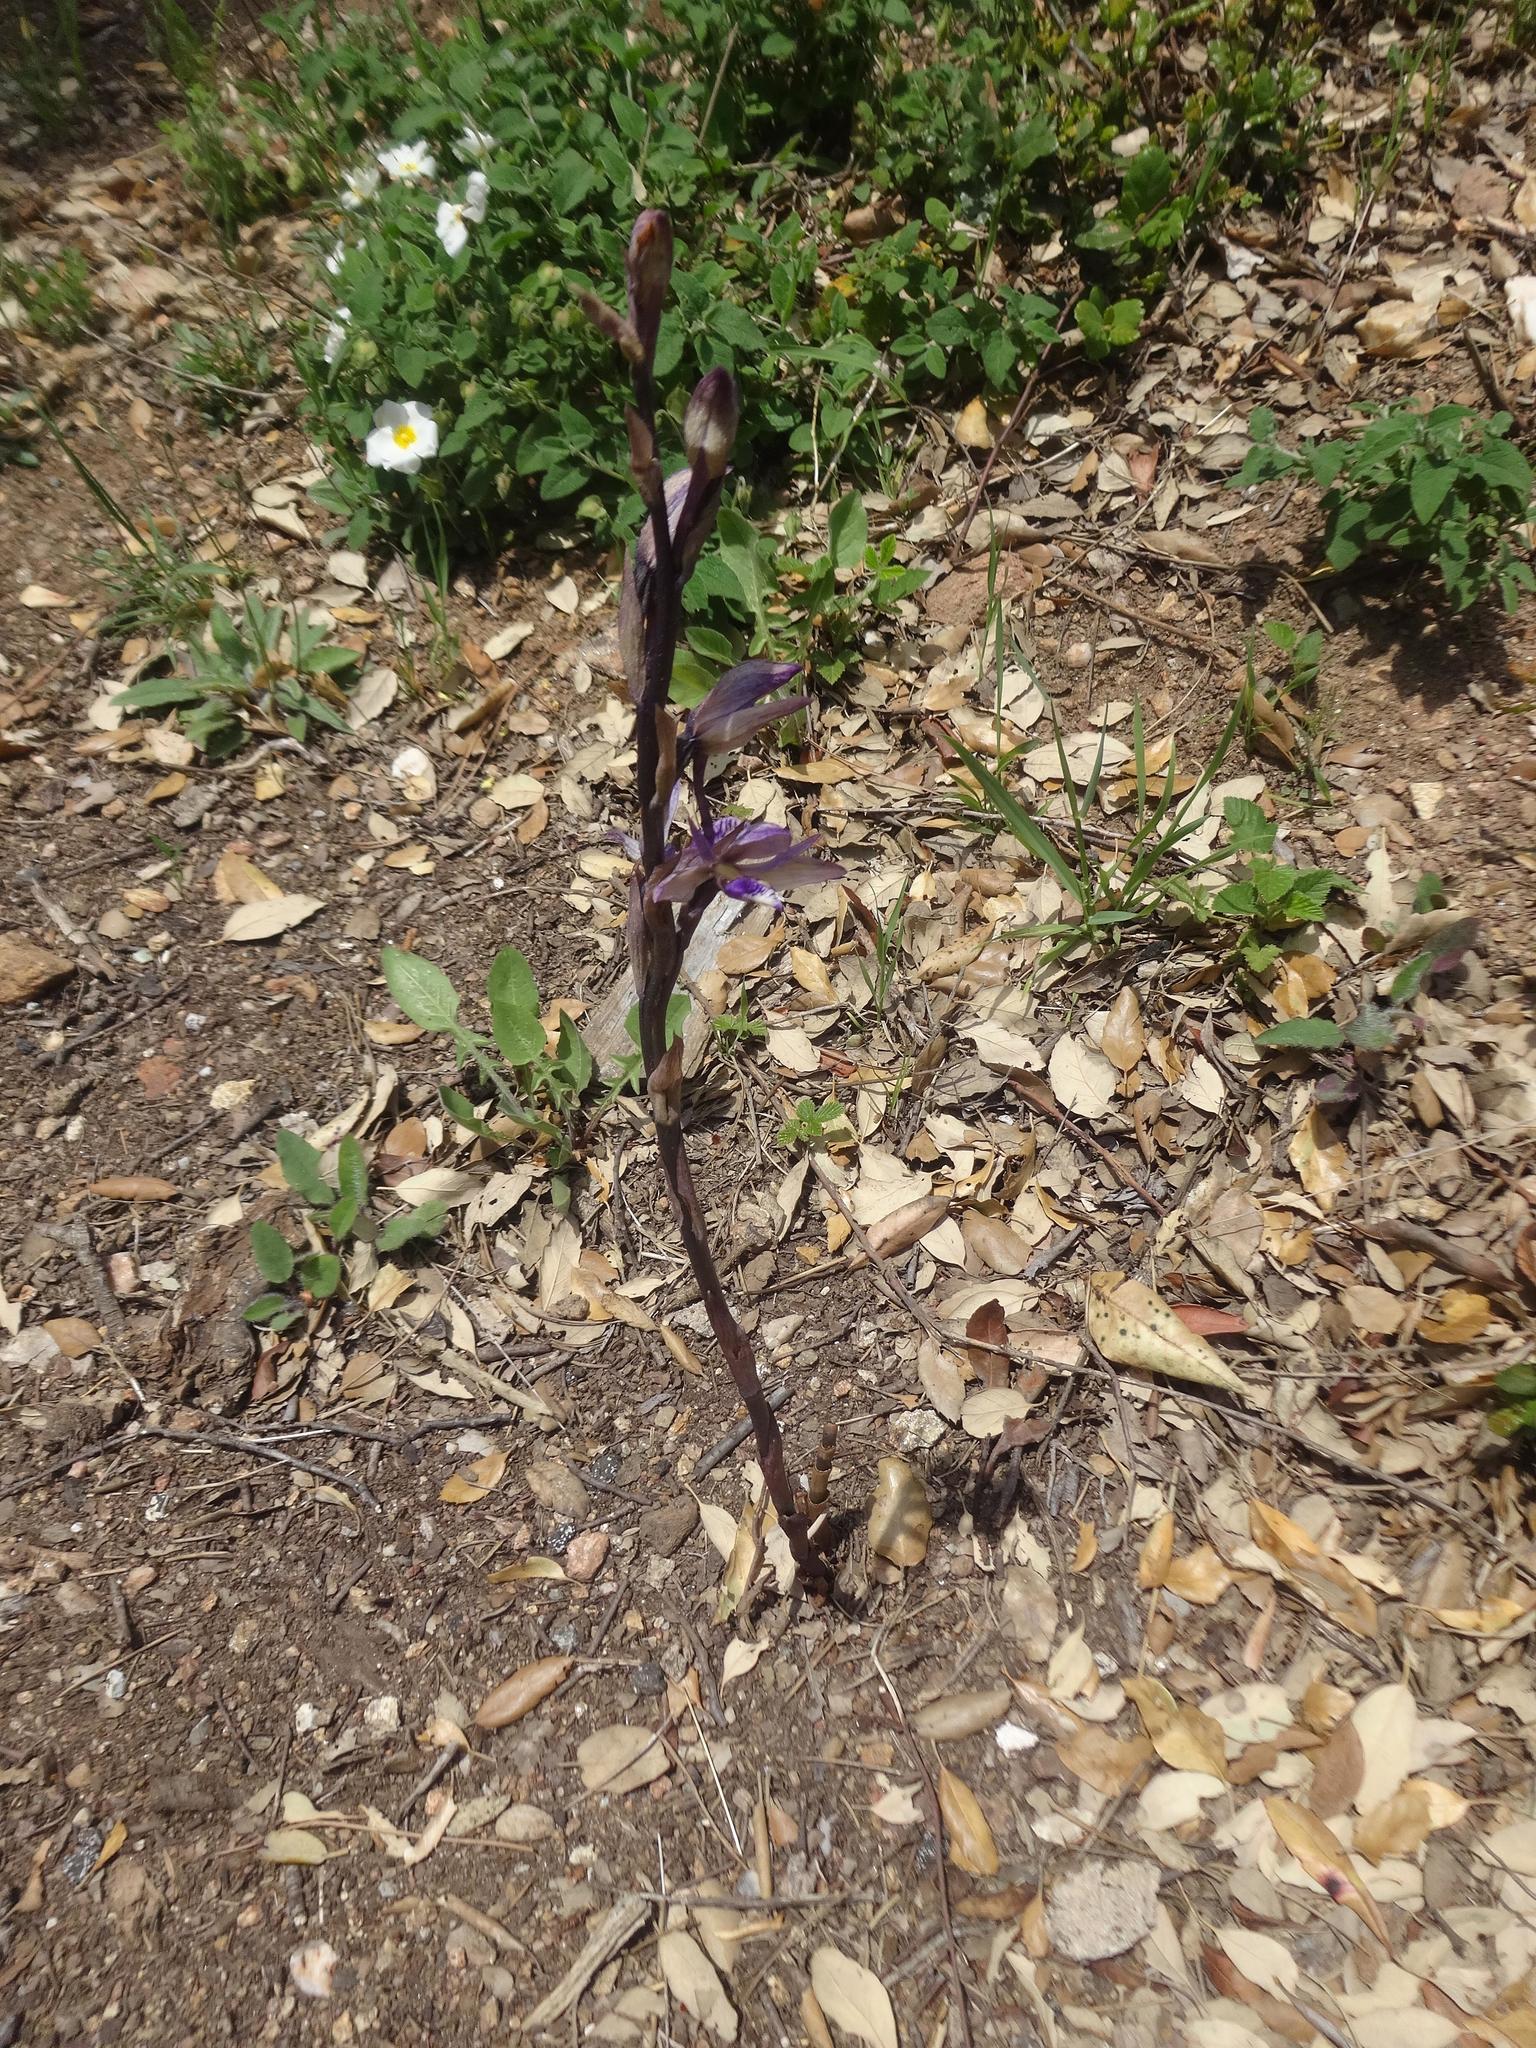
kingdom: Plantae
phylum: Tracheophyta
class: Liliopsida
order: Asparagales
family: Orchidaceae
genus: Limodorum
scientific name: Limodorum abortivum
